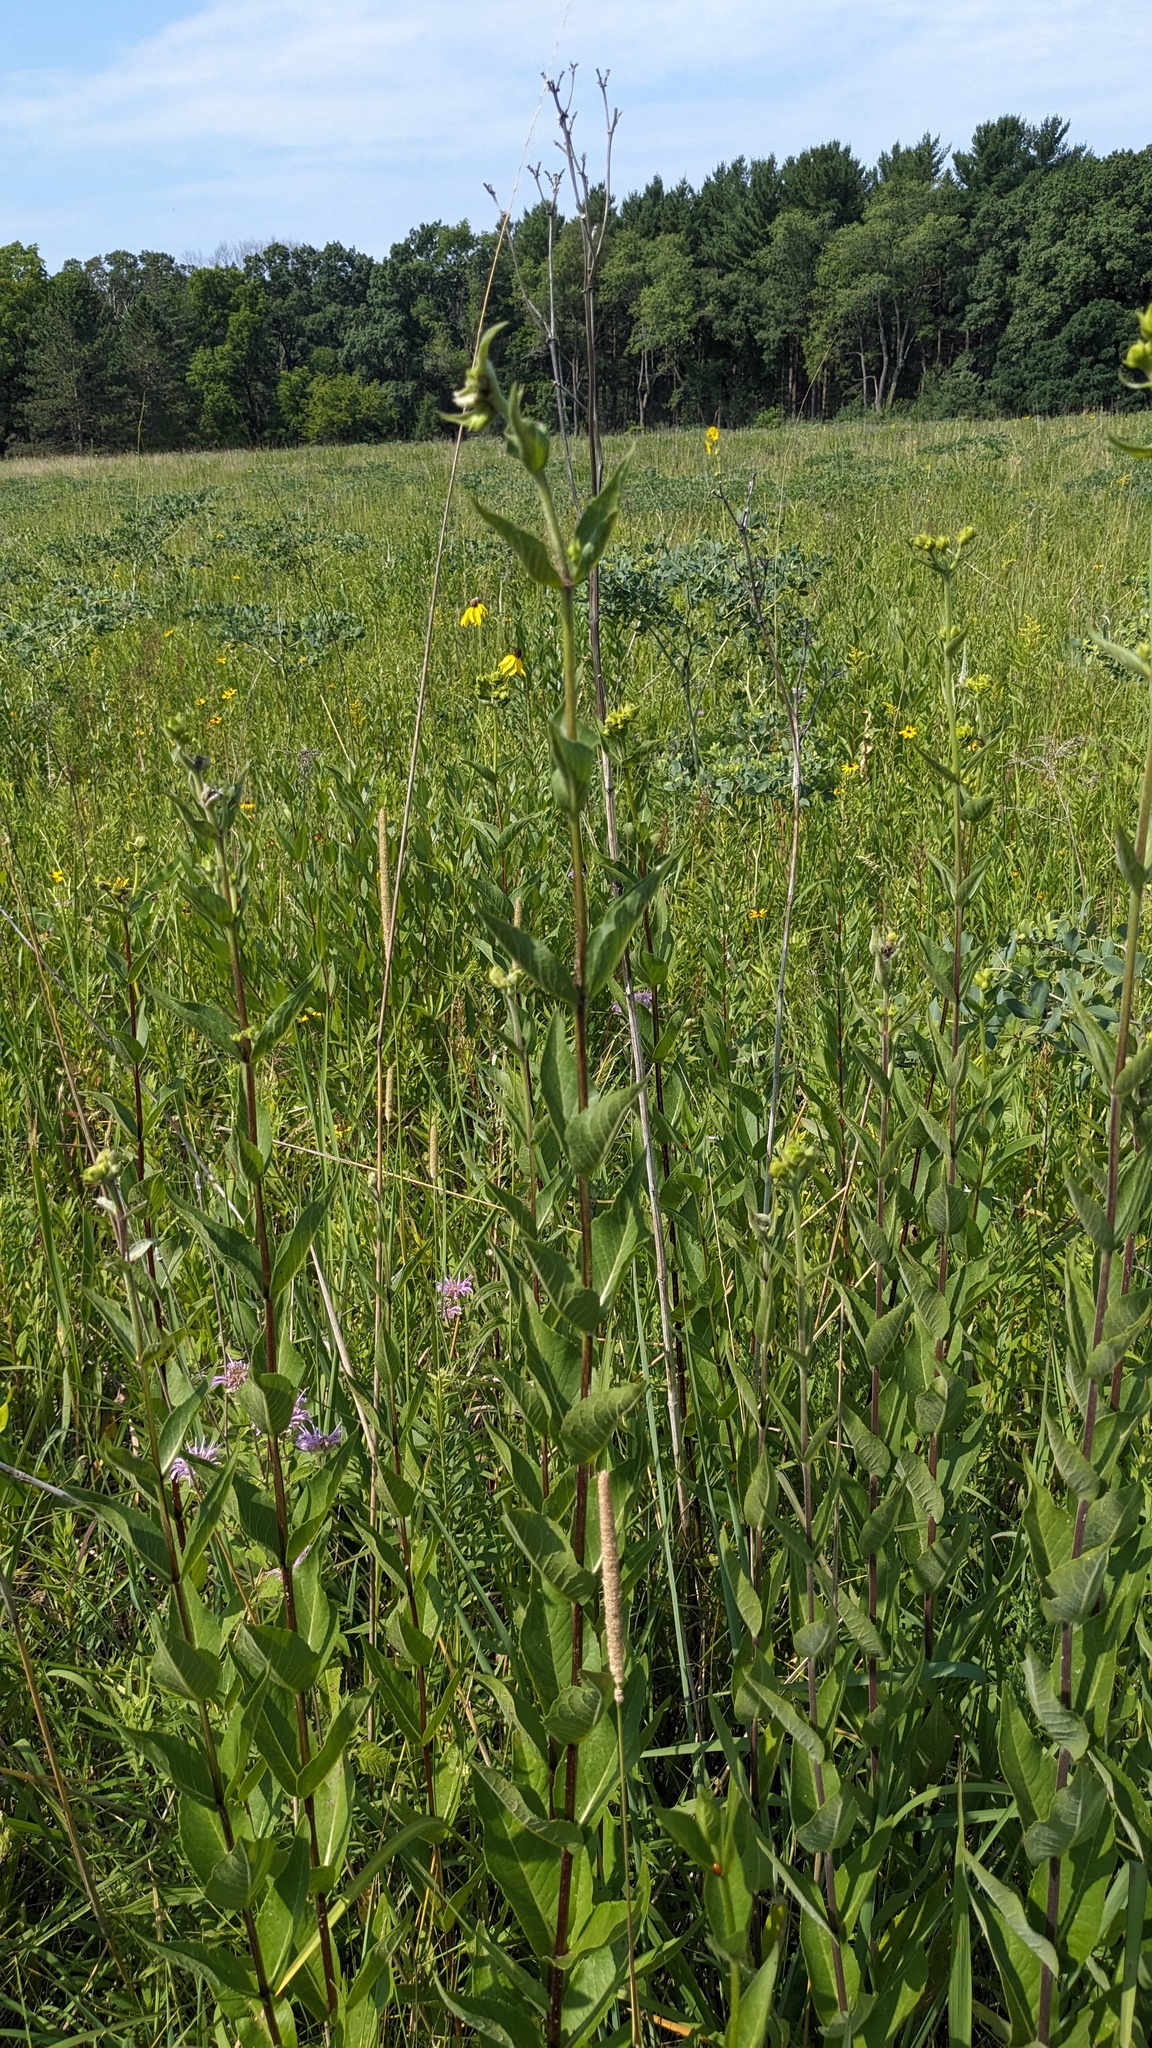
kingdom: Plantae
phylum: Tracheophyta
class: Magnoliopsida
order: Asterales
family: Asteraceae
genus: Silphium
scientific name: Silphium integrifolium
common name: Whole-leaf rosinweed
